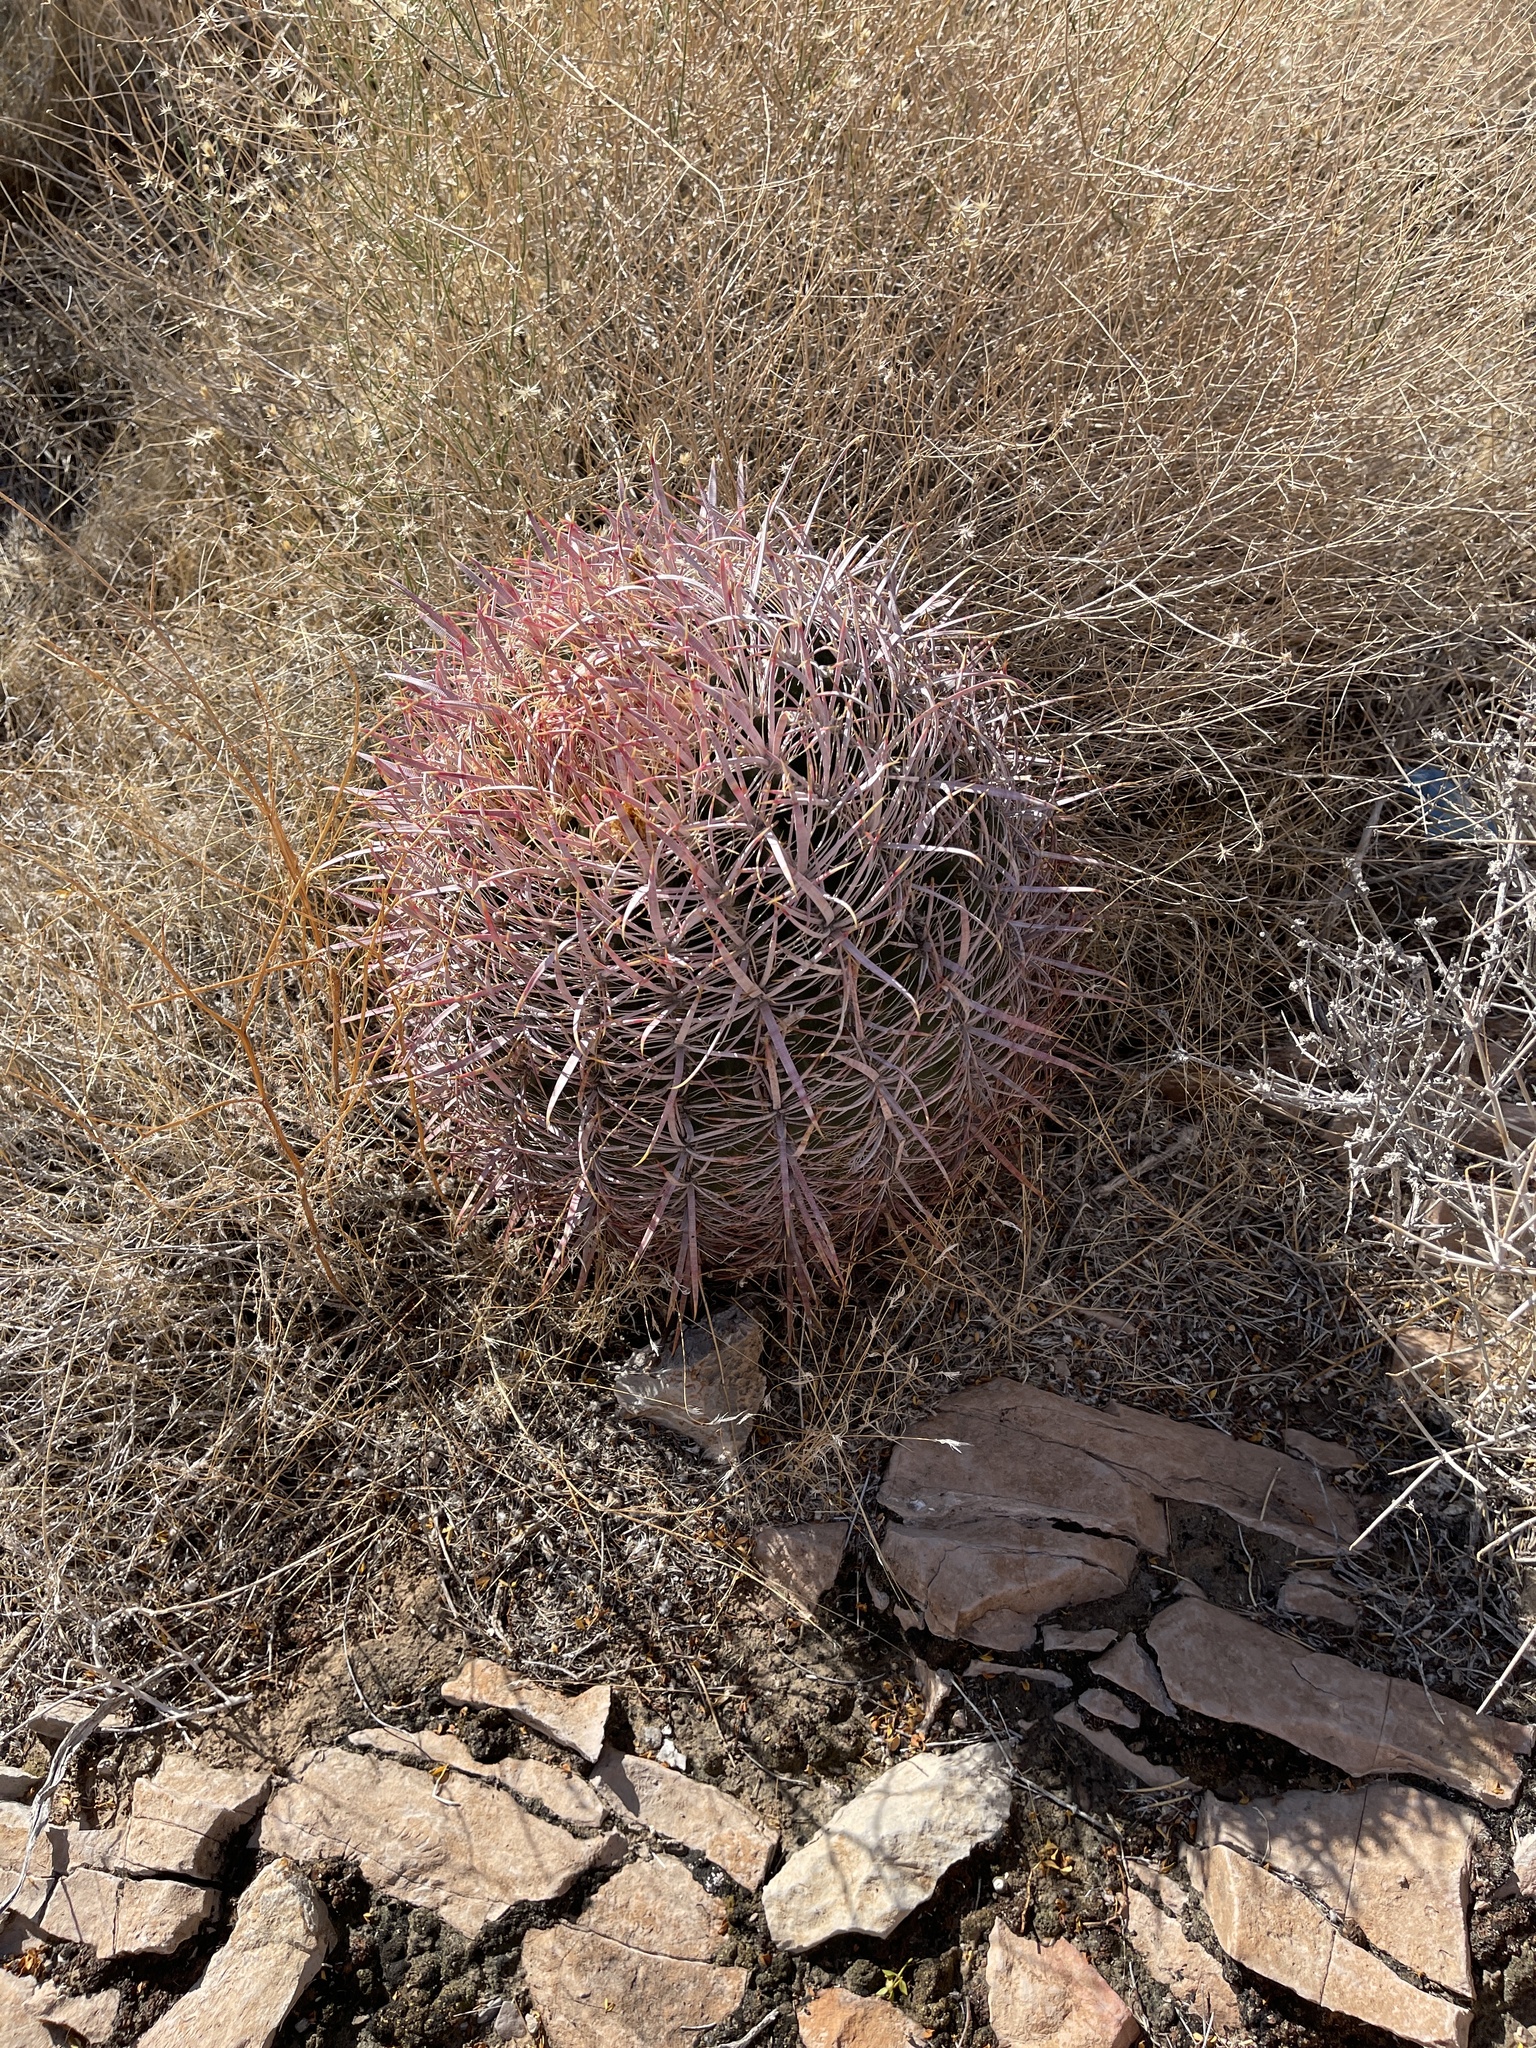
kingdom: Plantae
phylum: Tracheophyta
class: Magnoliopsida
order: Caryophyllales
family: Cactaceae
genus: Ferocactus
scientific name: Ferocactus cylindraceus
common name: California barrel cactus
